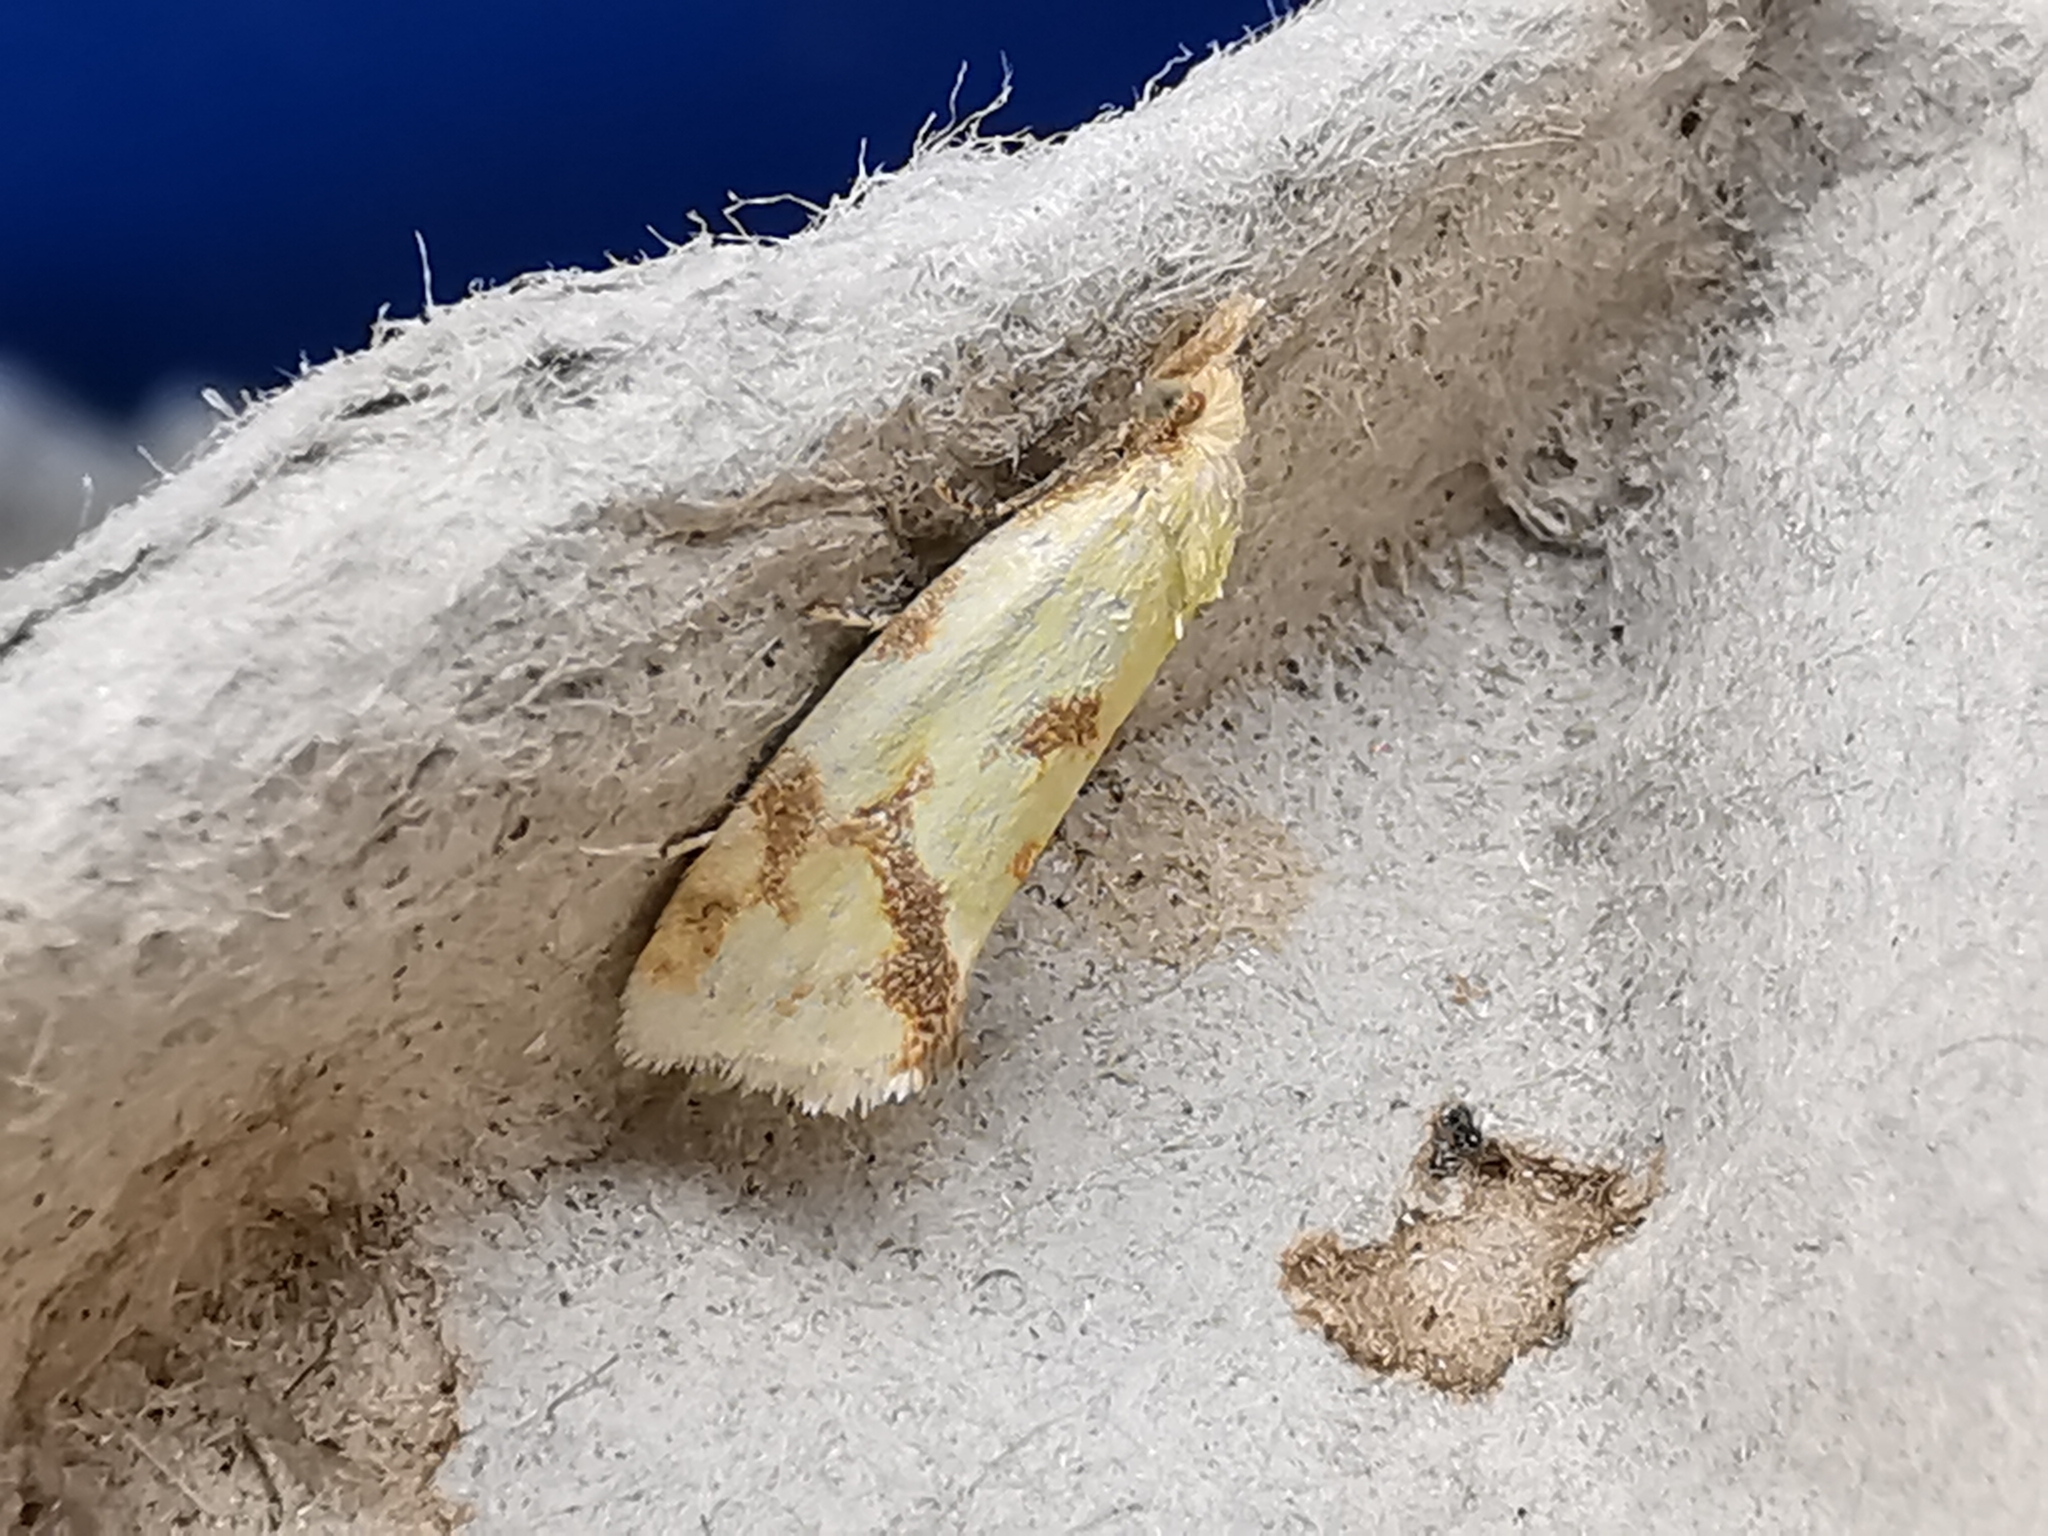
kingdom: Animalia
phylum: Arthropoda
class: Insecta
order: Lepidoptera
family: Tortricidae
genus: Agapeta
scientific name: Agapeta hamana
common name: Common yellow conch
